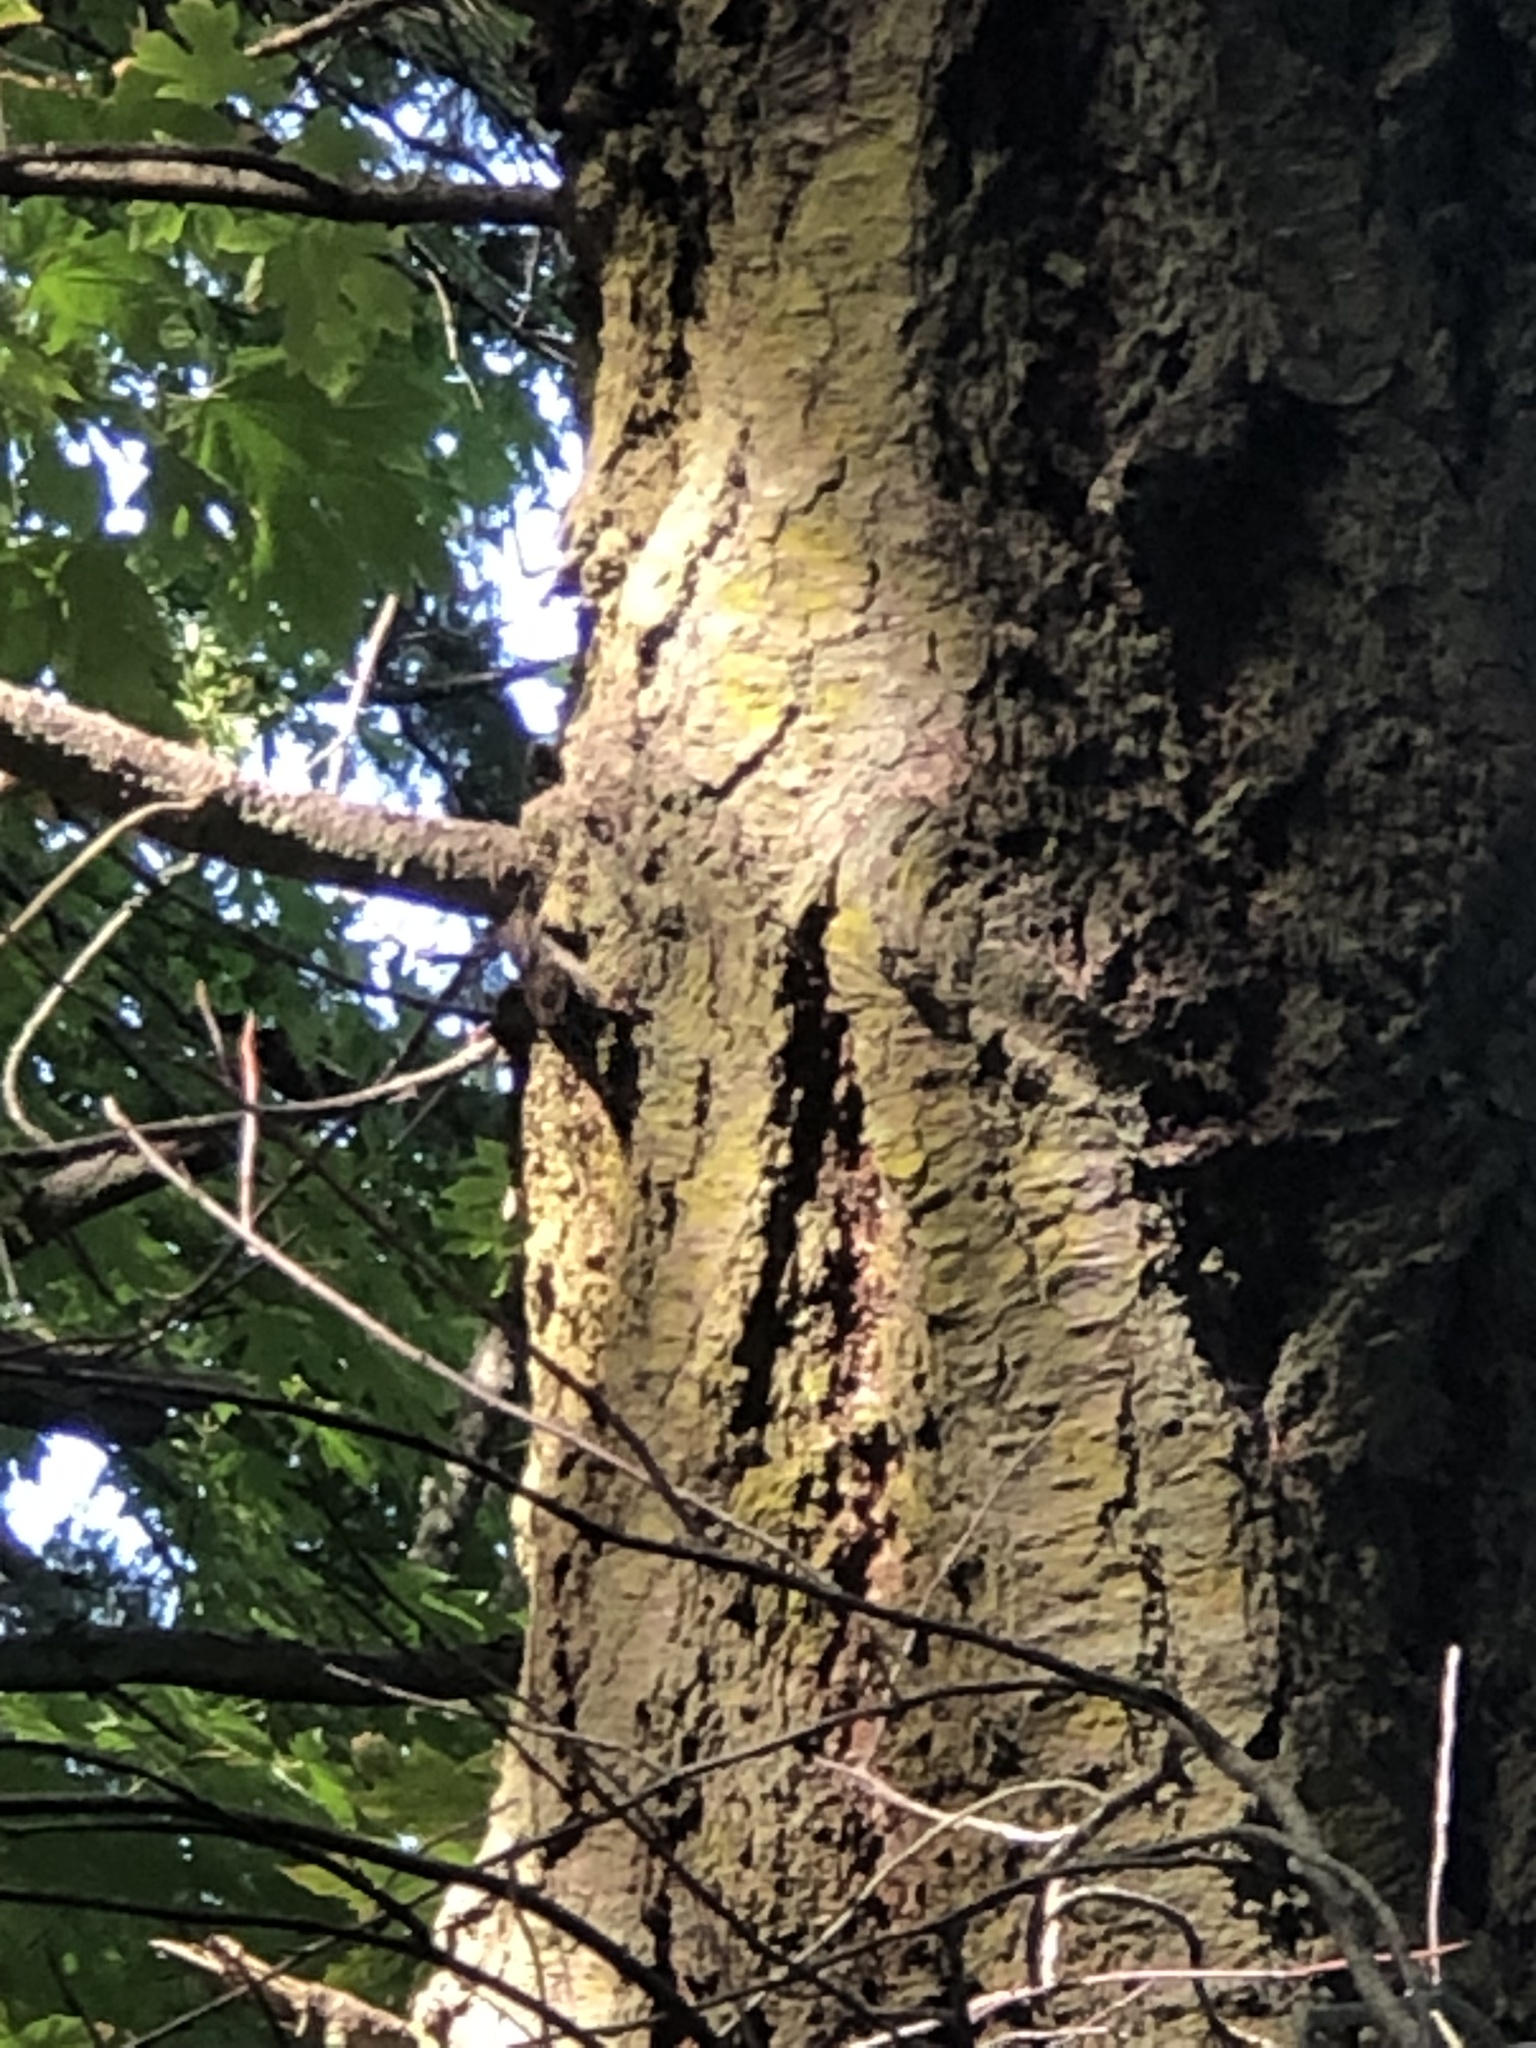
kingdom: Animalia
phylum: Chordata
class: Aves
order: Passeriformes
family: Certhiidae
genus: Certhia
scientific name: Certhia americana
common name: Brown creeper
